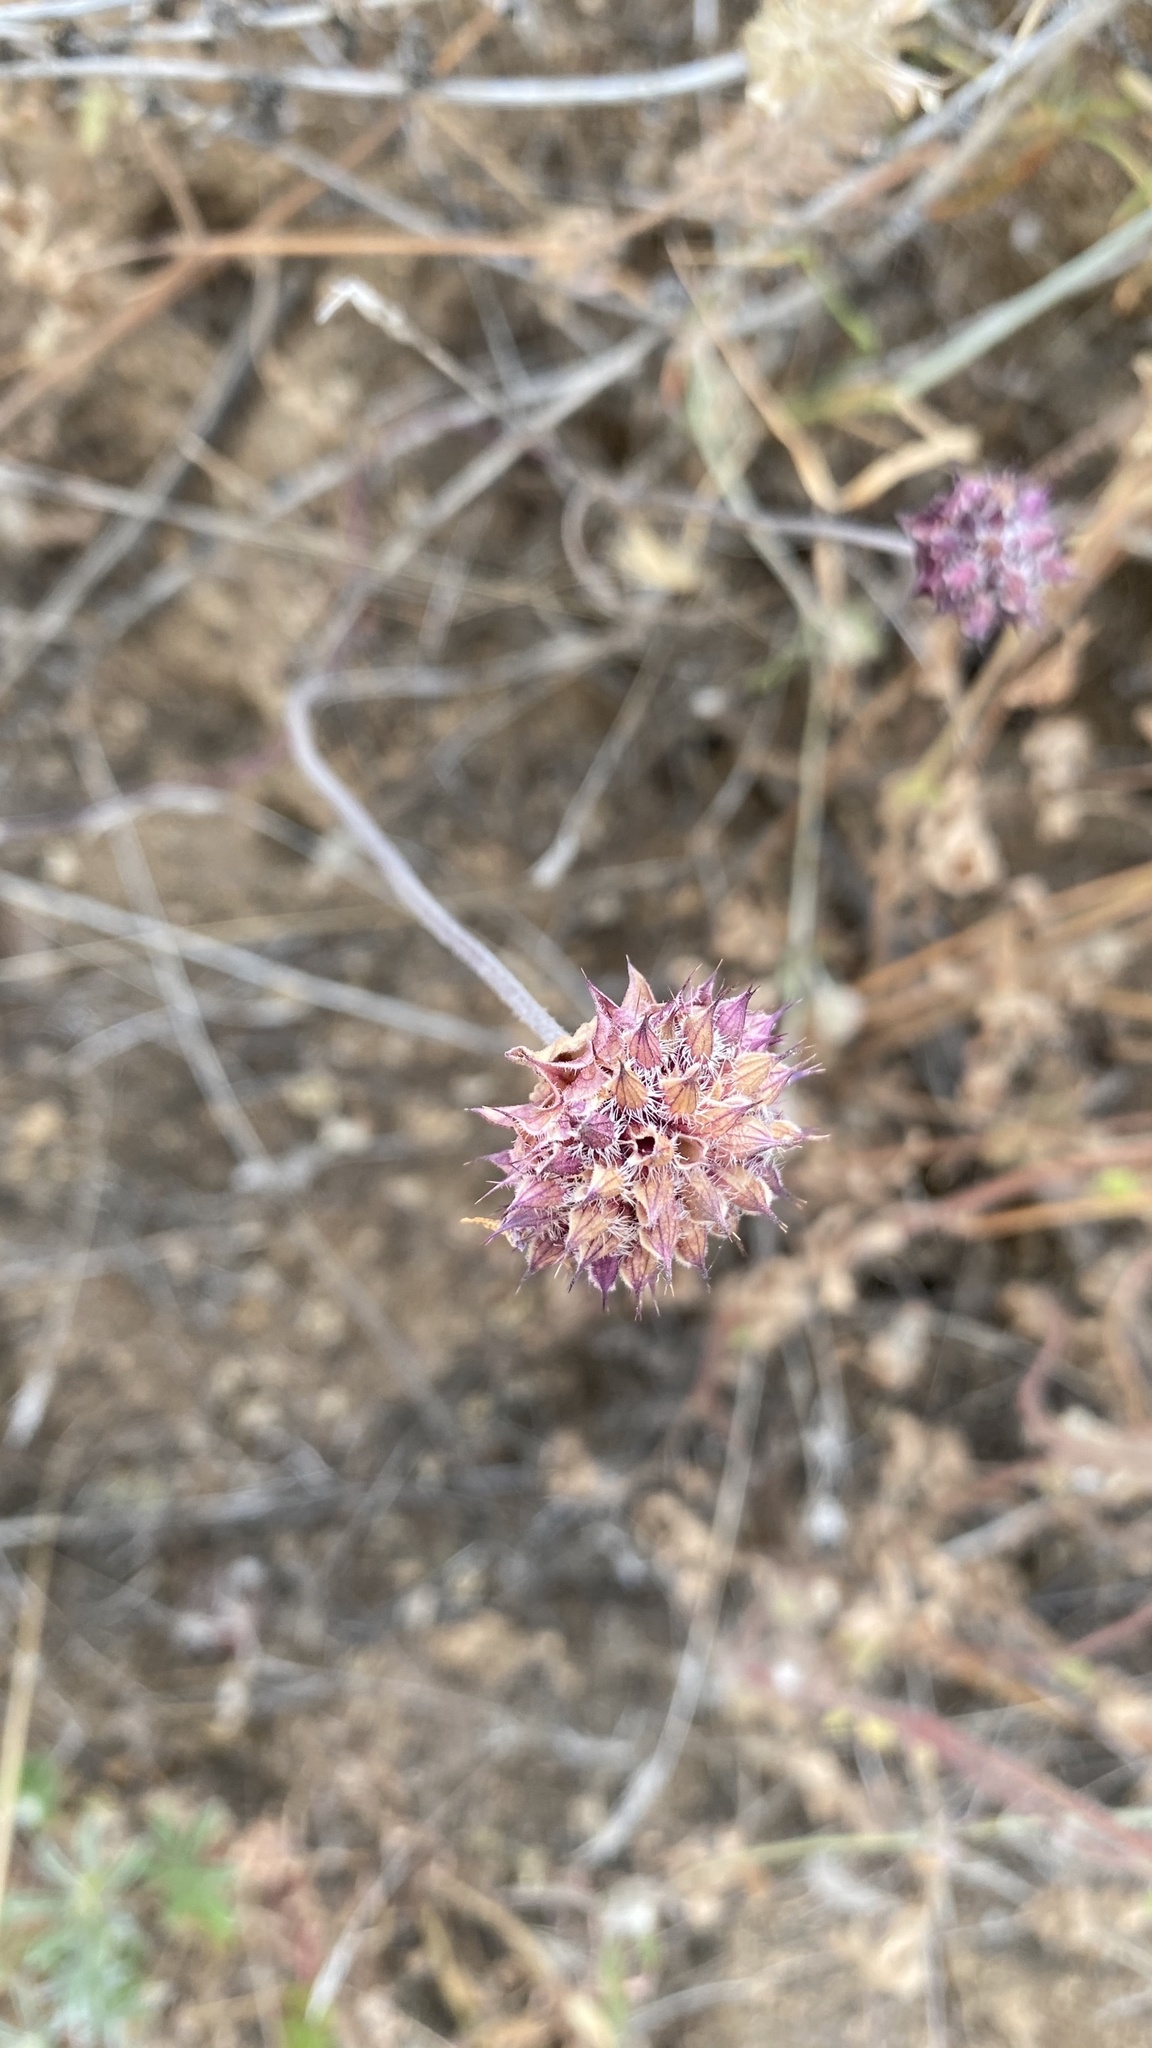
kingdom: Plantae
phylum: Tracheophyta
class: Magnoliopsida
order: Lamiales
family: Lamiaceae
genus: Salvia
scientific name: Salvia columbariae
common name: Chia
